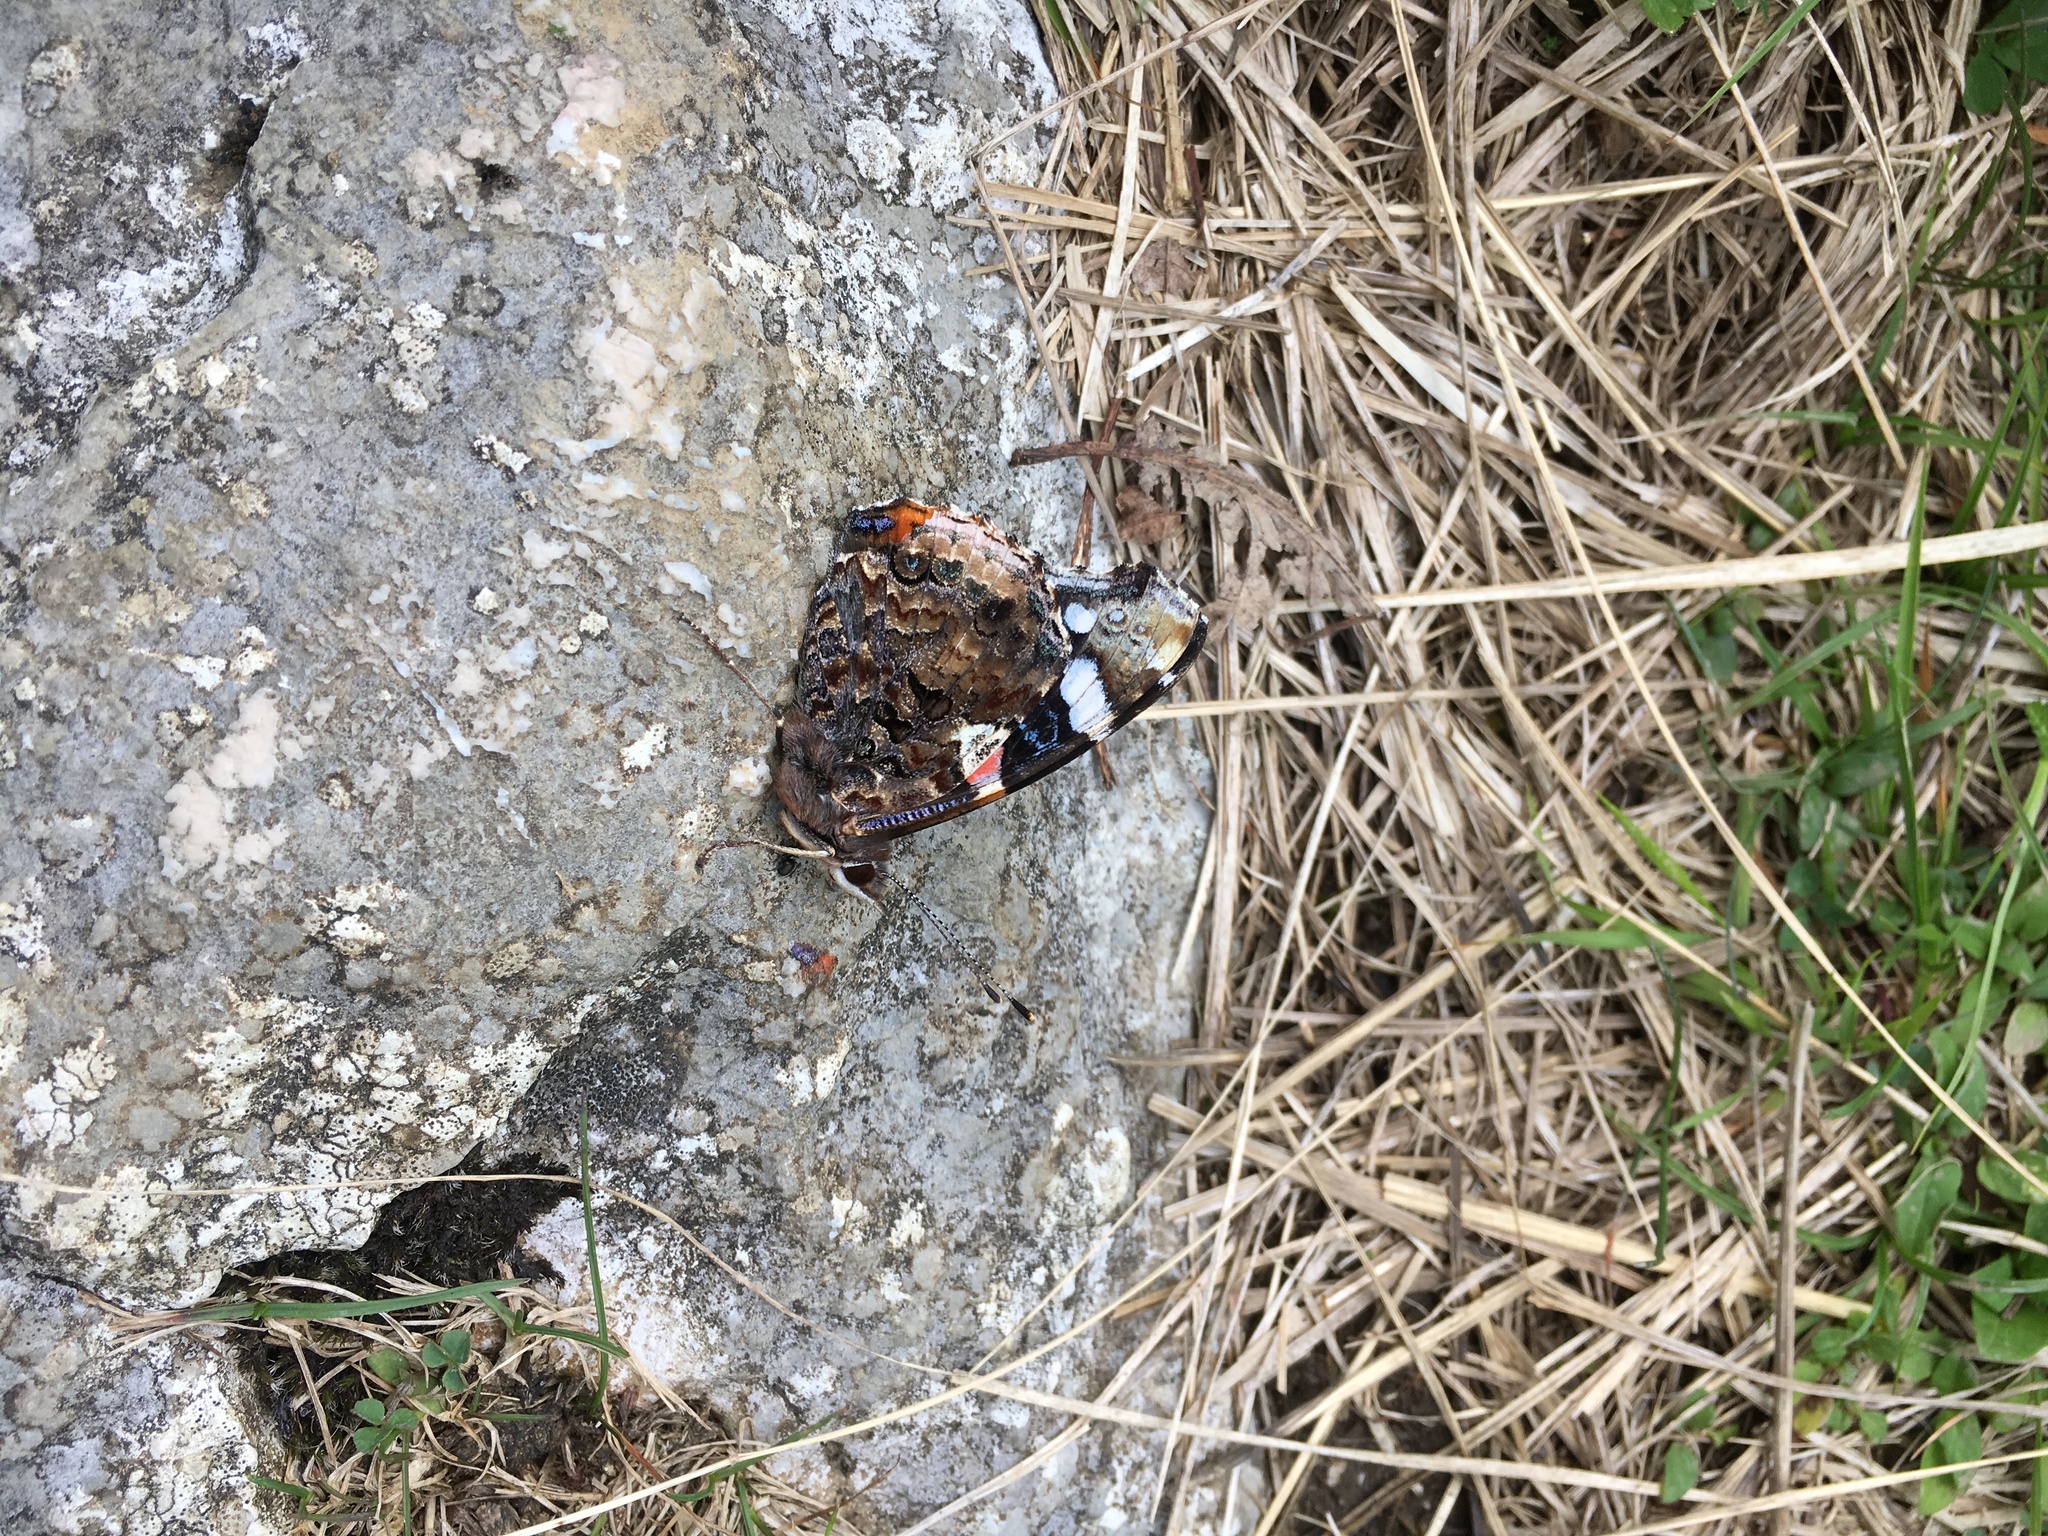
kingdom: Animalia
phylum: Arthropoda
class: Insecta
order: Lepidoptera
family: Nymphalidae
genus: Vanessa
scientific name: Vanessa atalanta
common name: Red admiral
